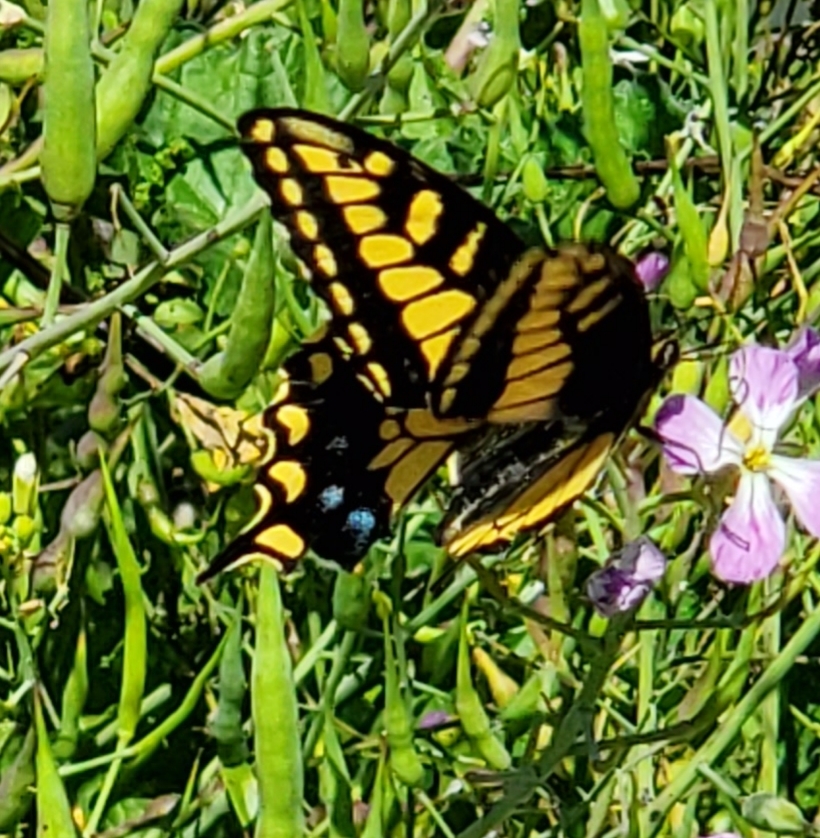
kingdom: Animalia
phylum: Arthropoda
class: Insecta
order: Lepidoptera
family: Papilionidae
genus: Papilio
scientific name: Papilio zelicaon
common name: Anise swallowtail
